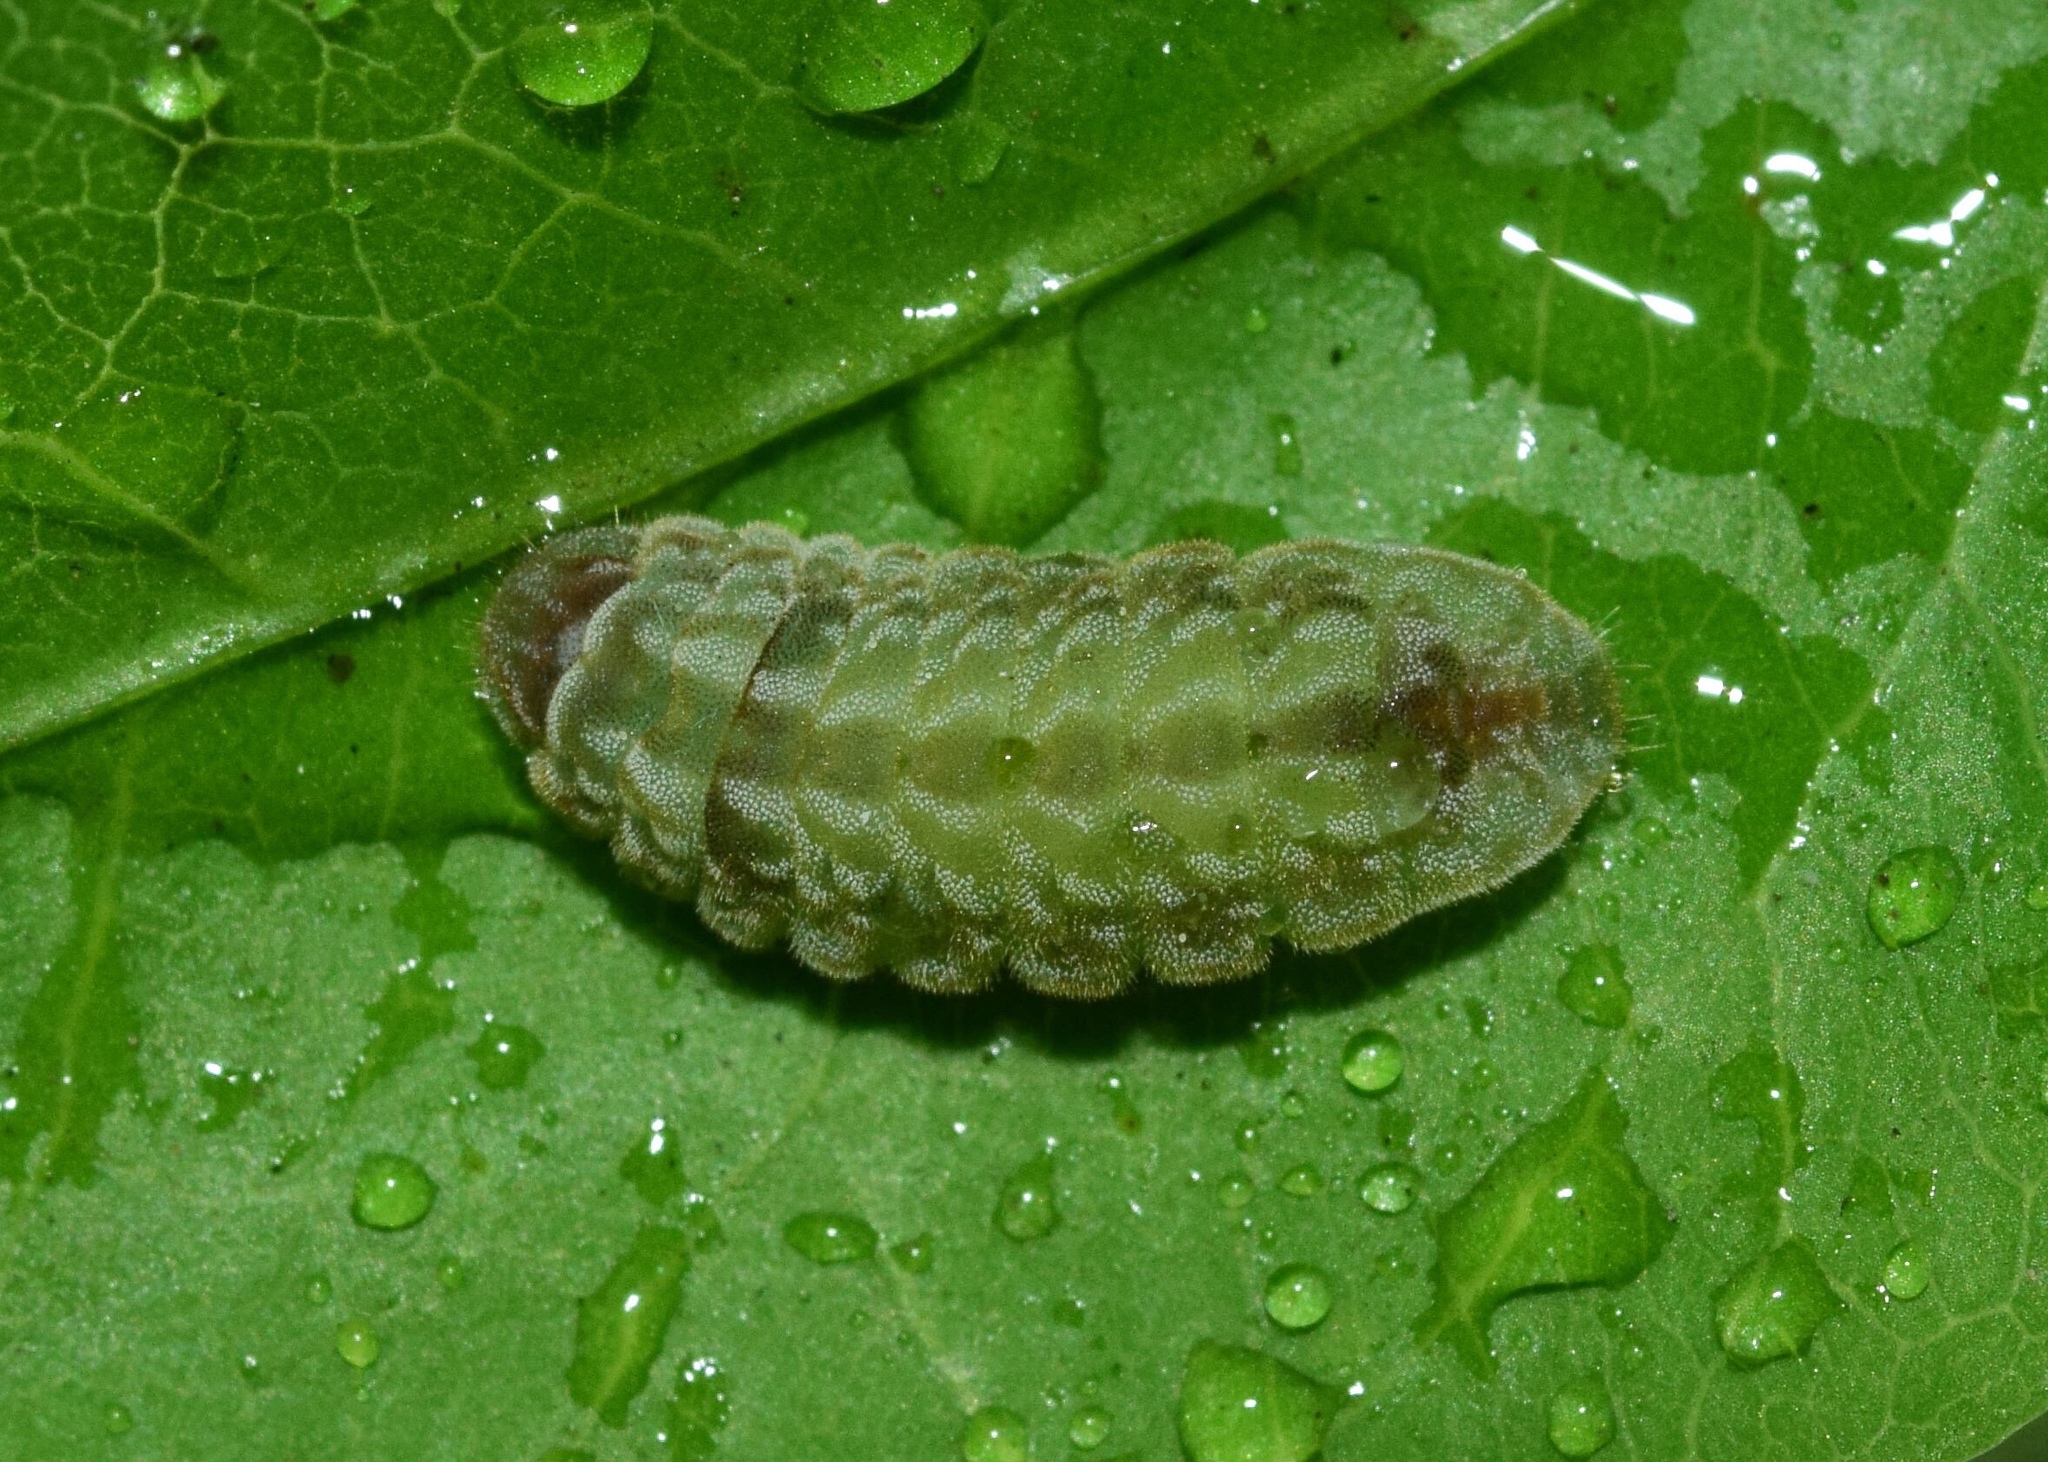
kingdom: Animalia
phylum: Arthropoda
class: Insecta
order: Lepidoptera
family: Lycaenidae
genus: Leptotes
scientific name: Leptotes
